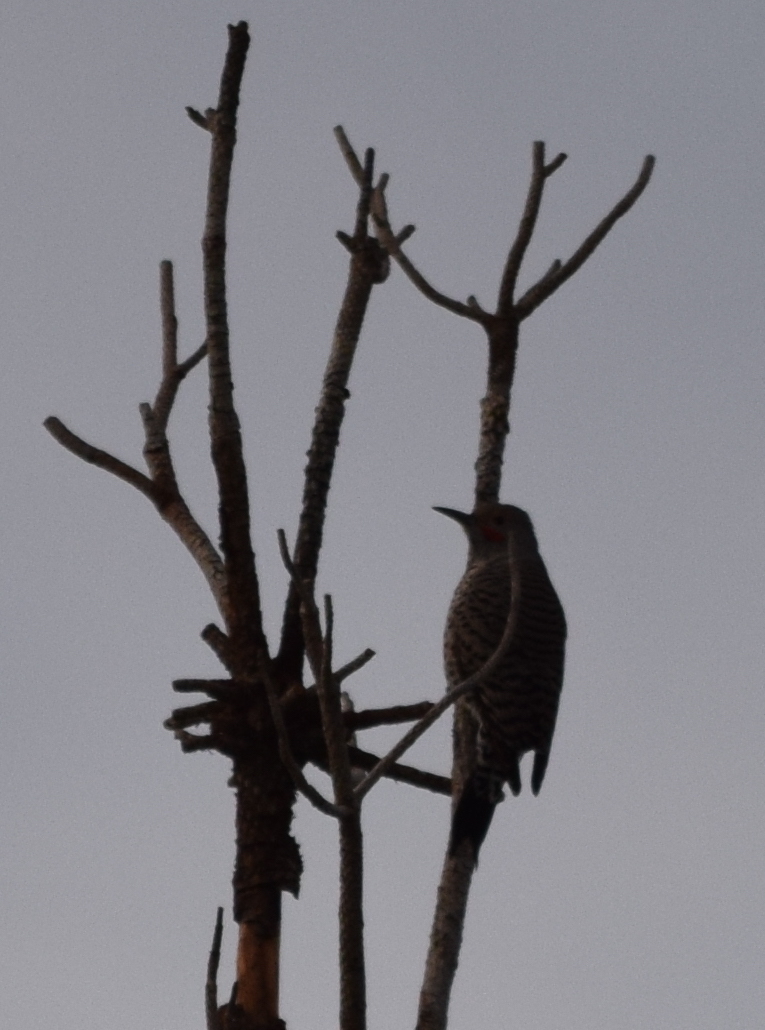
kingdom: Animalia
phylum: Chordata
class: Aves
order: Piciformes
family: Picidae
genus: Colaptes
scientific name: Colaptes auratus
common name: Northern flicker
